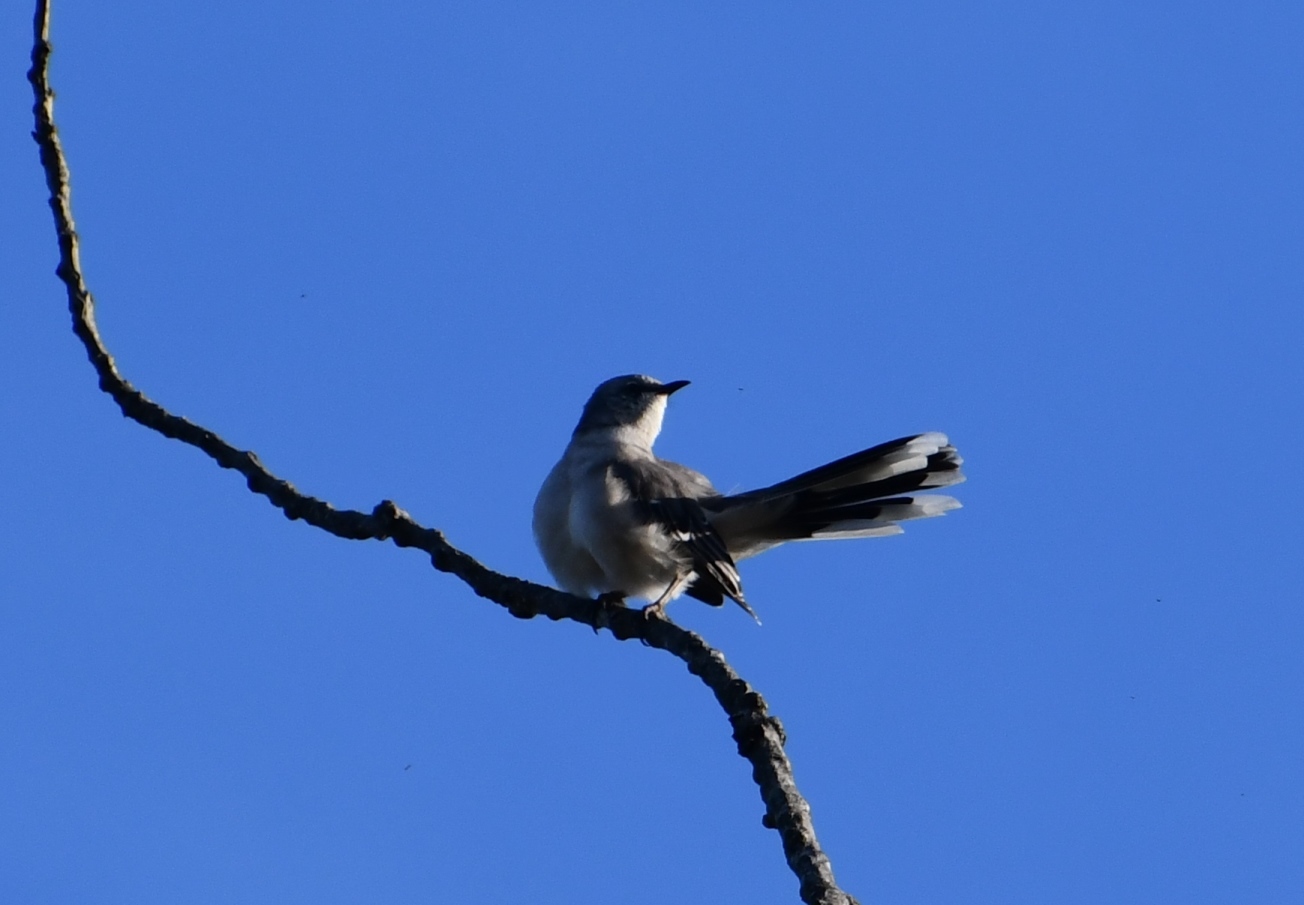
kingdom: Animalia
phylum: Chordata
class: Aves
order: Passeriformes
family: Mimidae
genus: Mimus
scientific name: Mimus gilvus
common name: Tropical mockingbird
